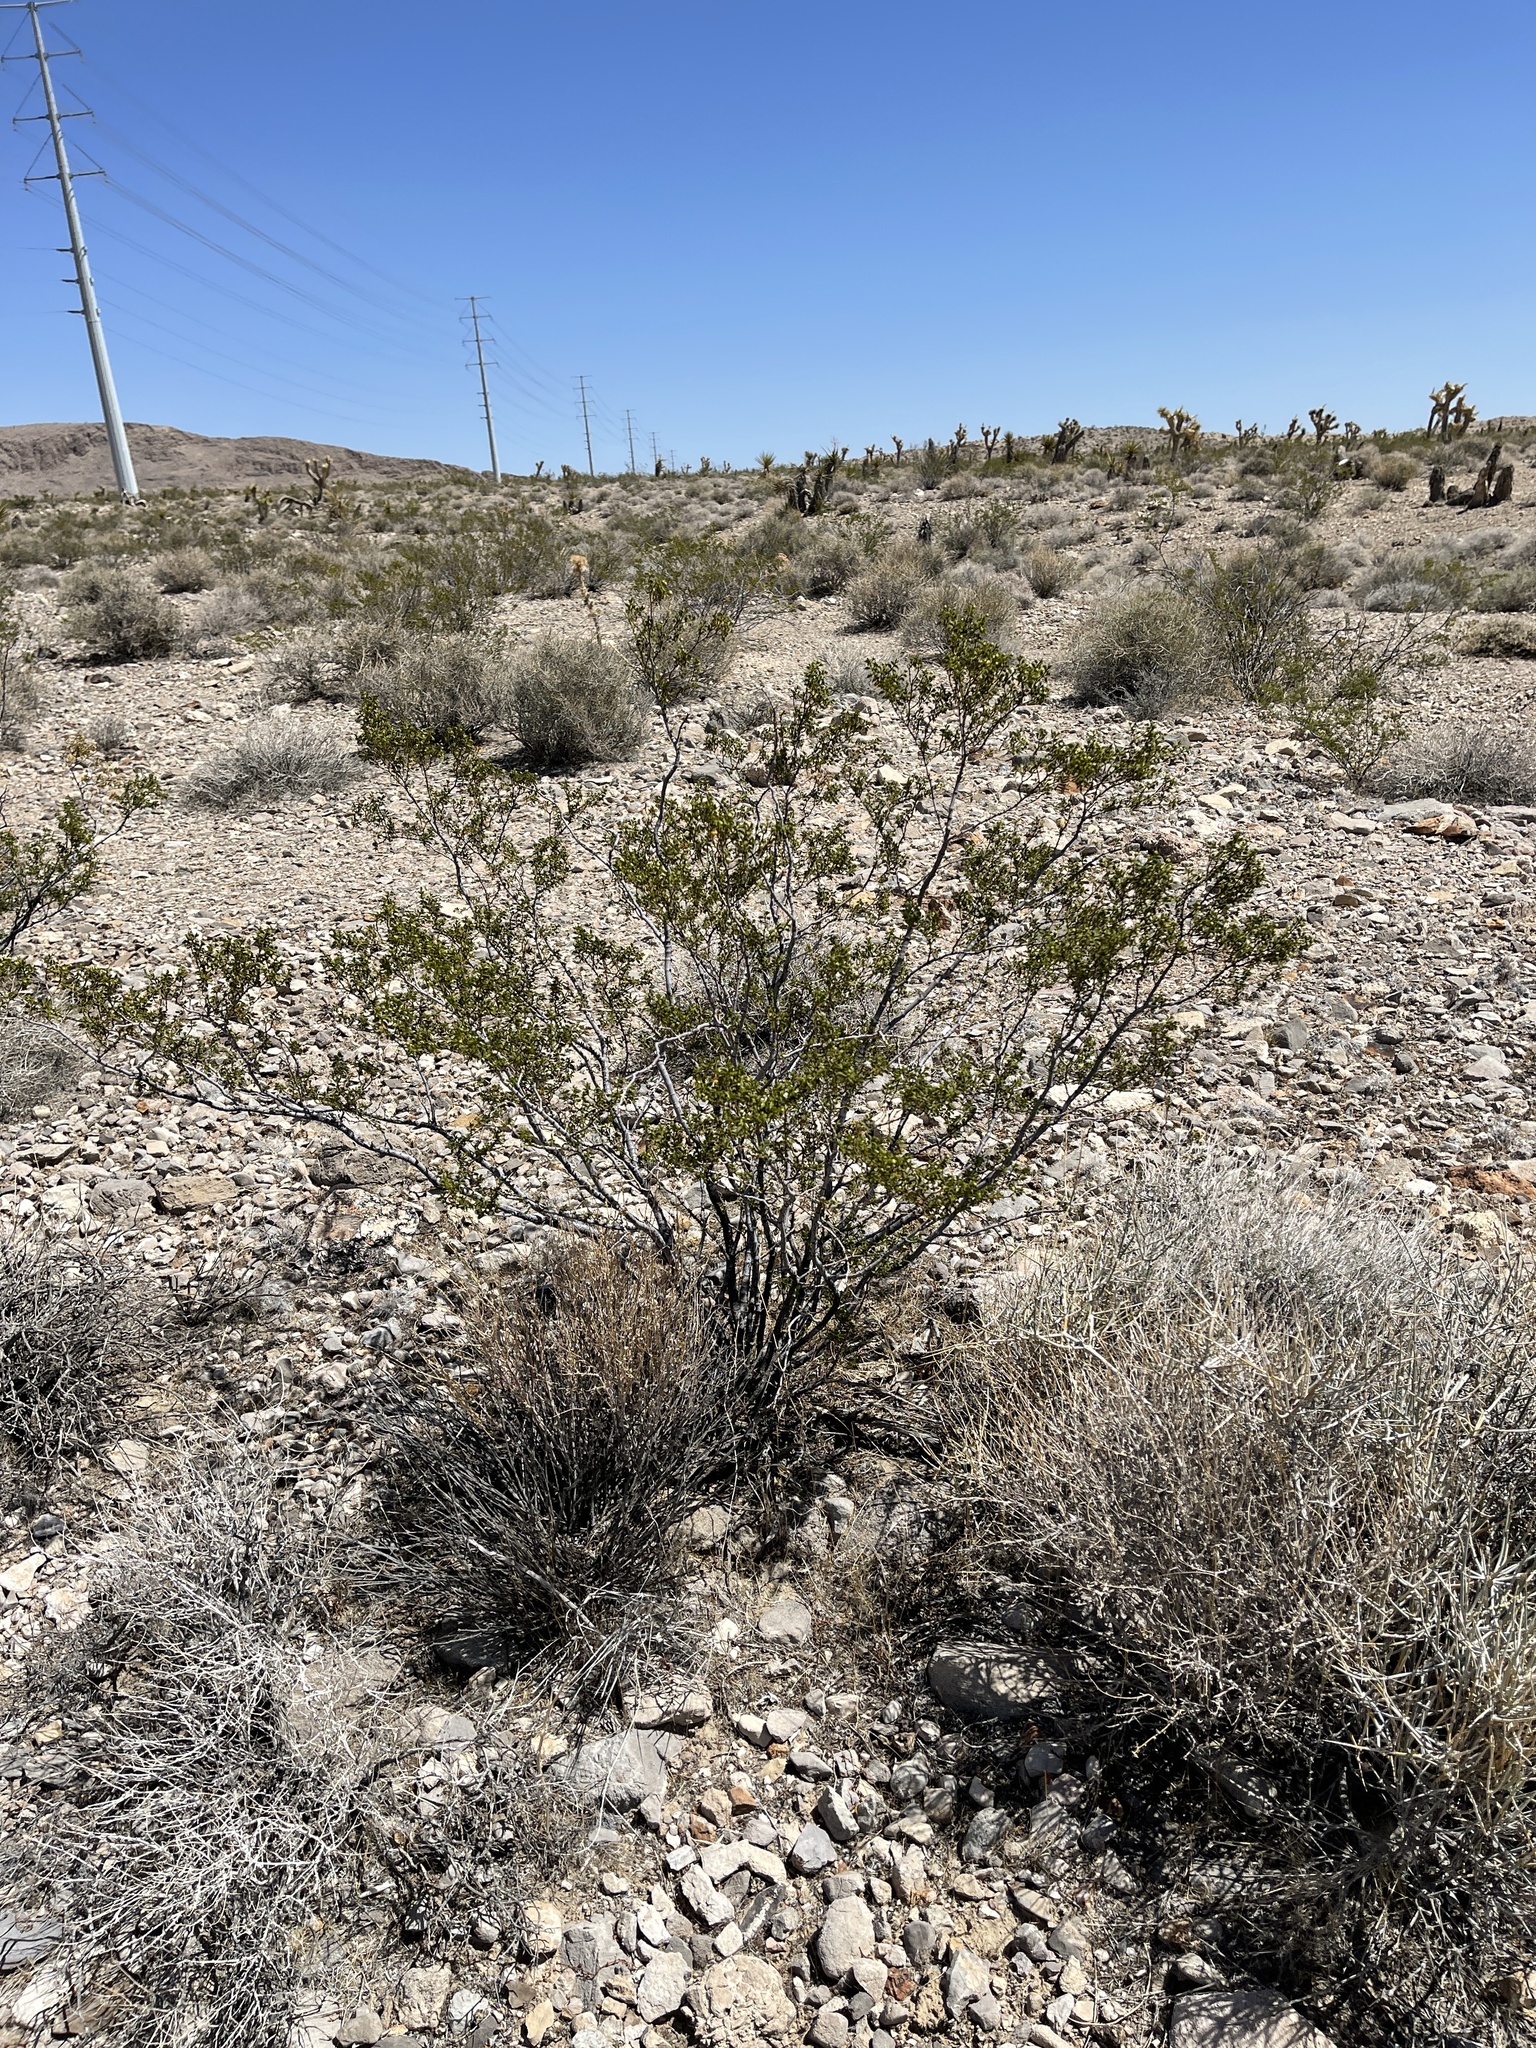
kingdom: Plantae
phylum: Tracheophyta
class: Magnoliopsida
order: Zygophyllales
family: Zygophyllaceae
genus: Larrea
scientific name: Larrea tridentata
